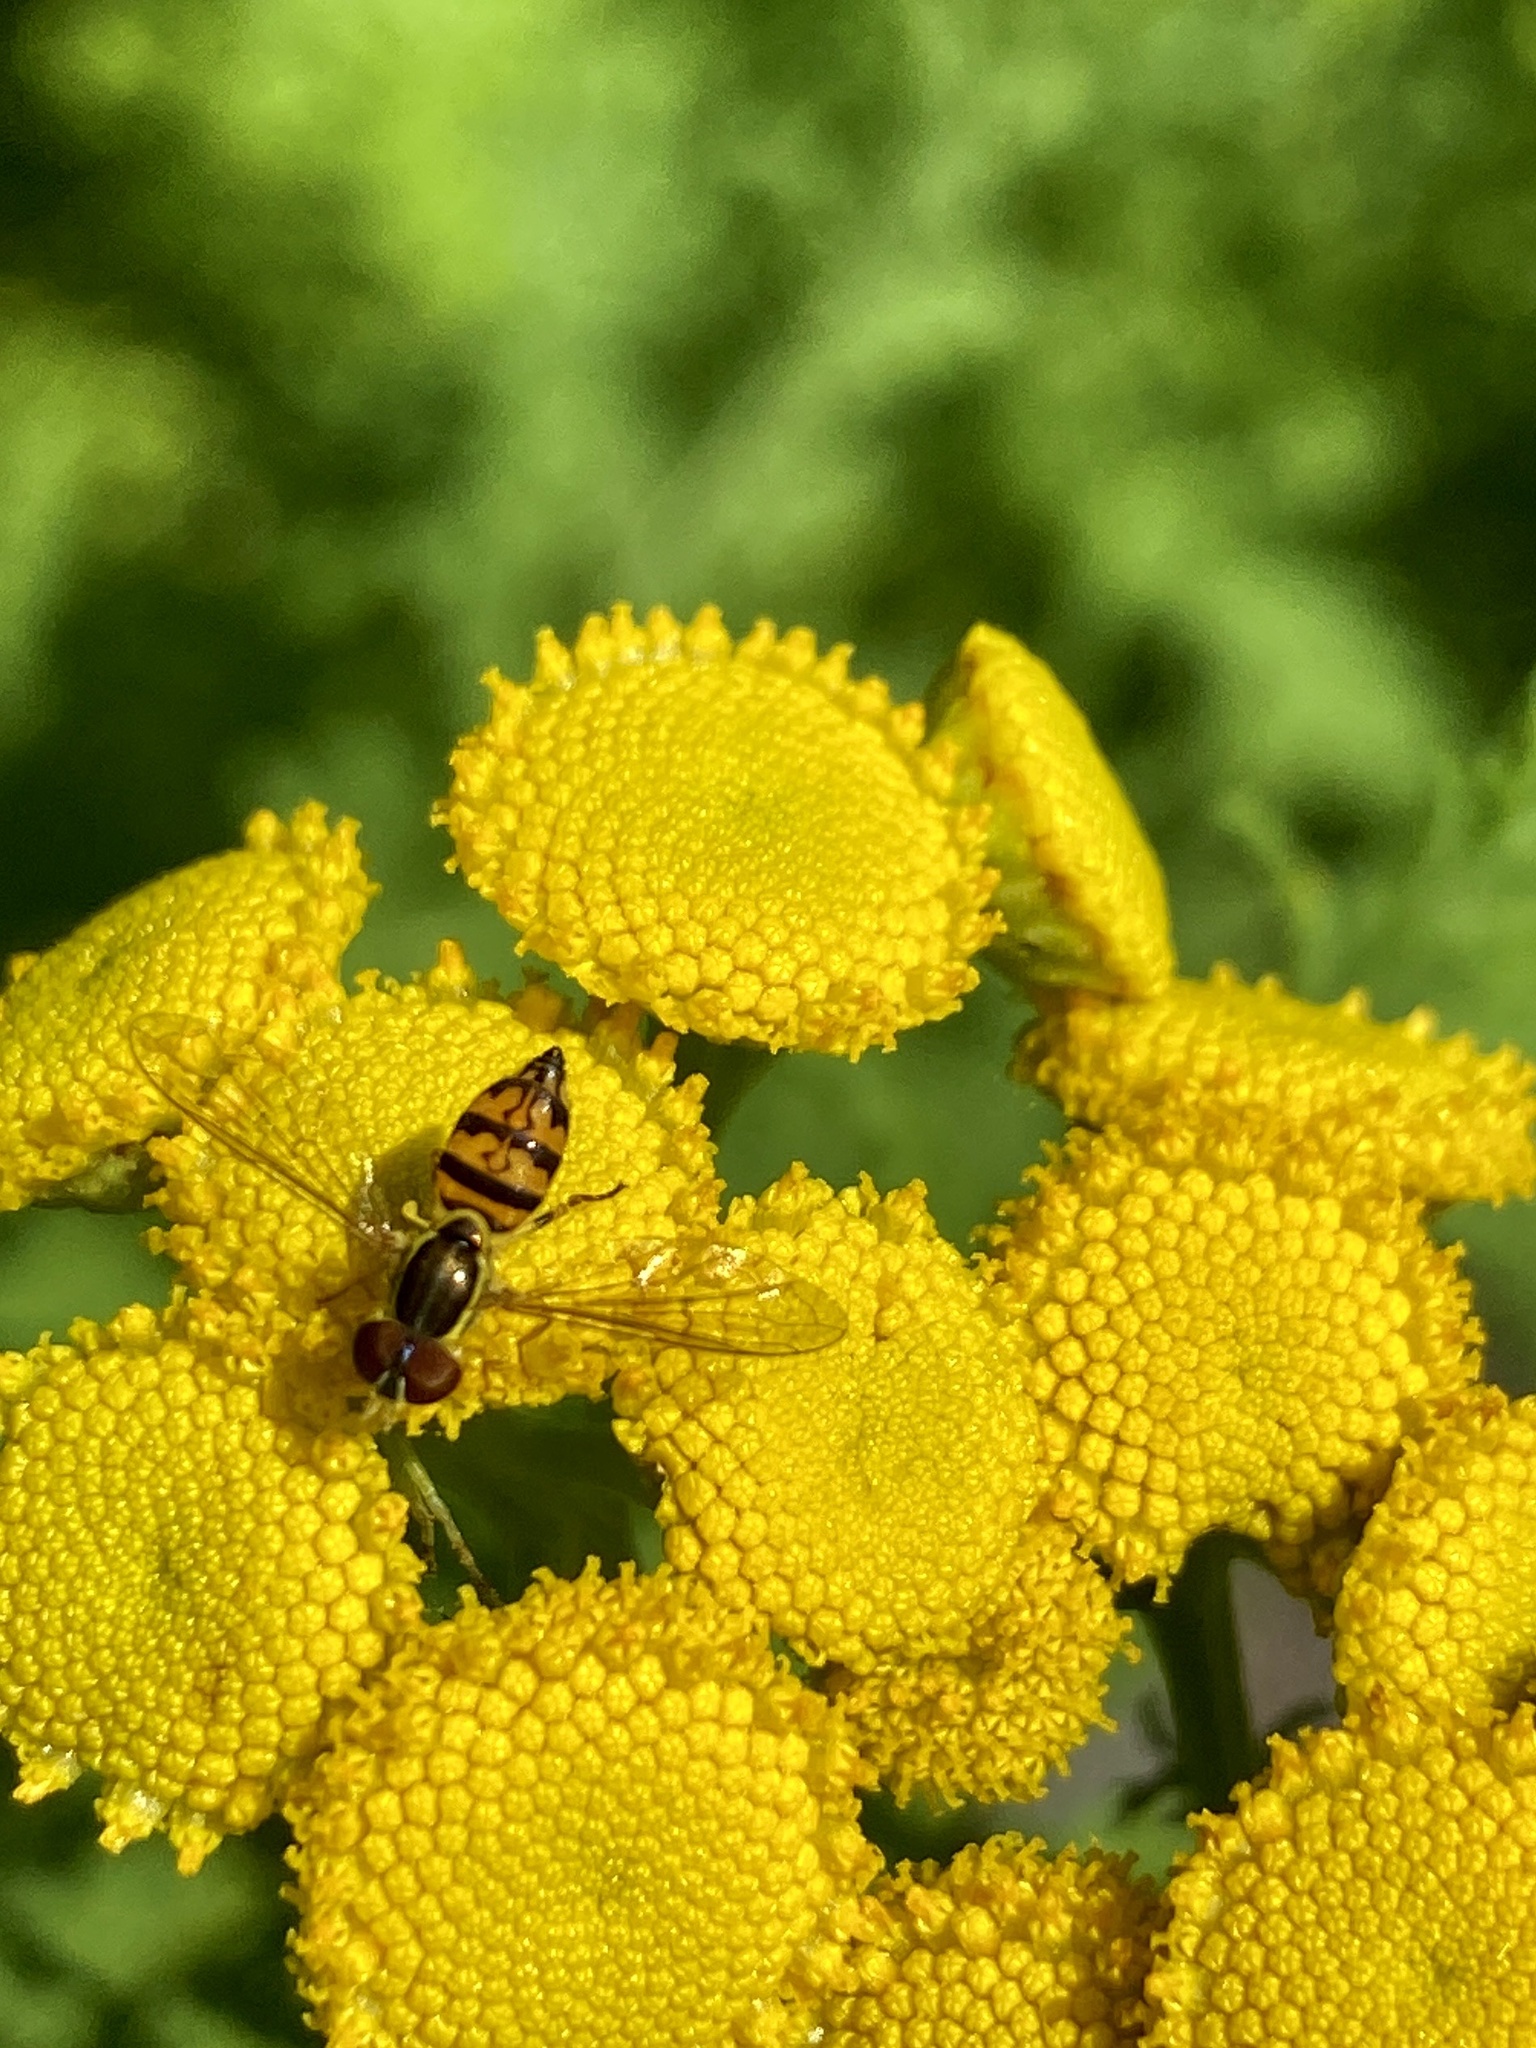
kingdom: Animalia
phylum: Arthropoda
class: Insecta
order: Diptera
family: Syrphidae
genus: Toxomerus
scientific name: Toxomerus geminatus
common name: Eastern calligrapher
